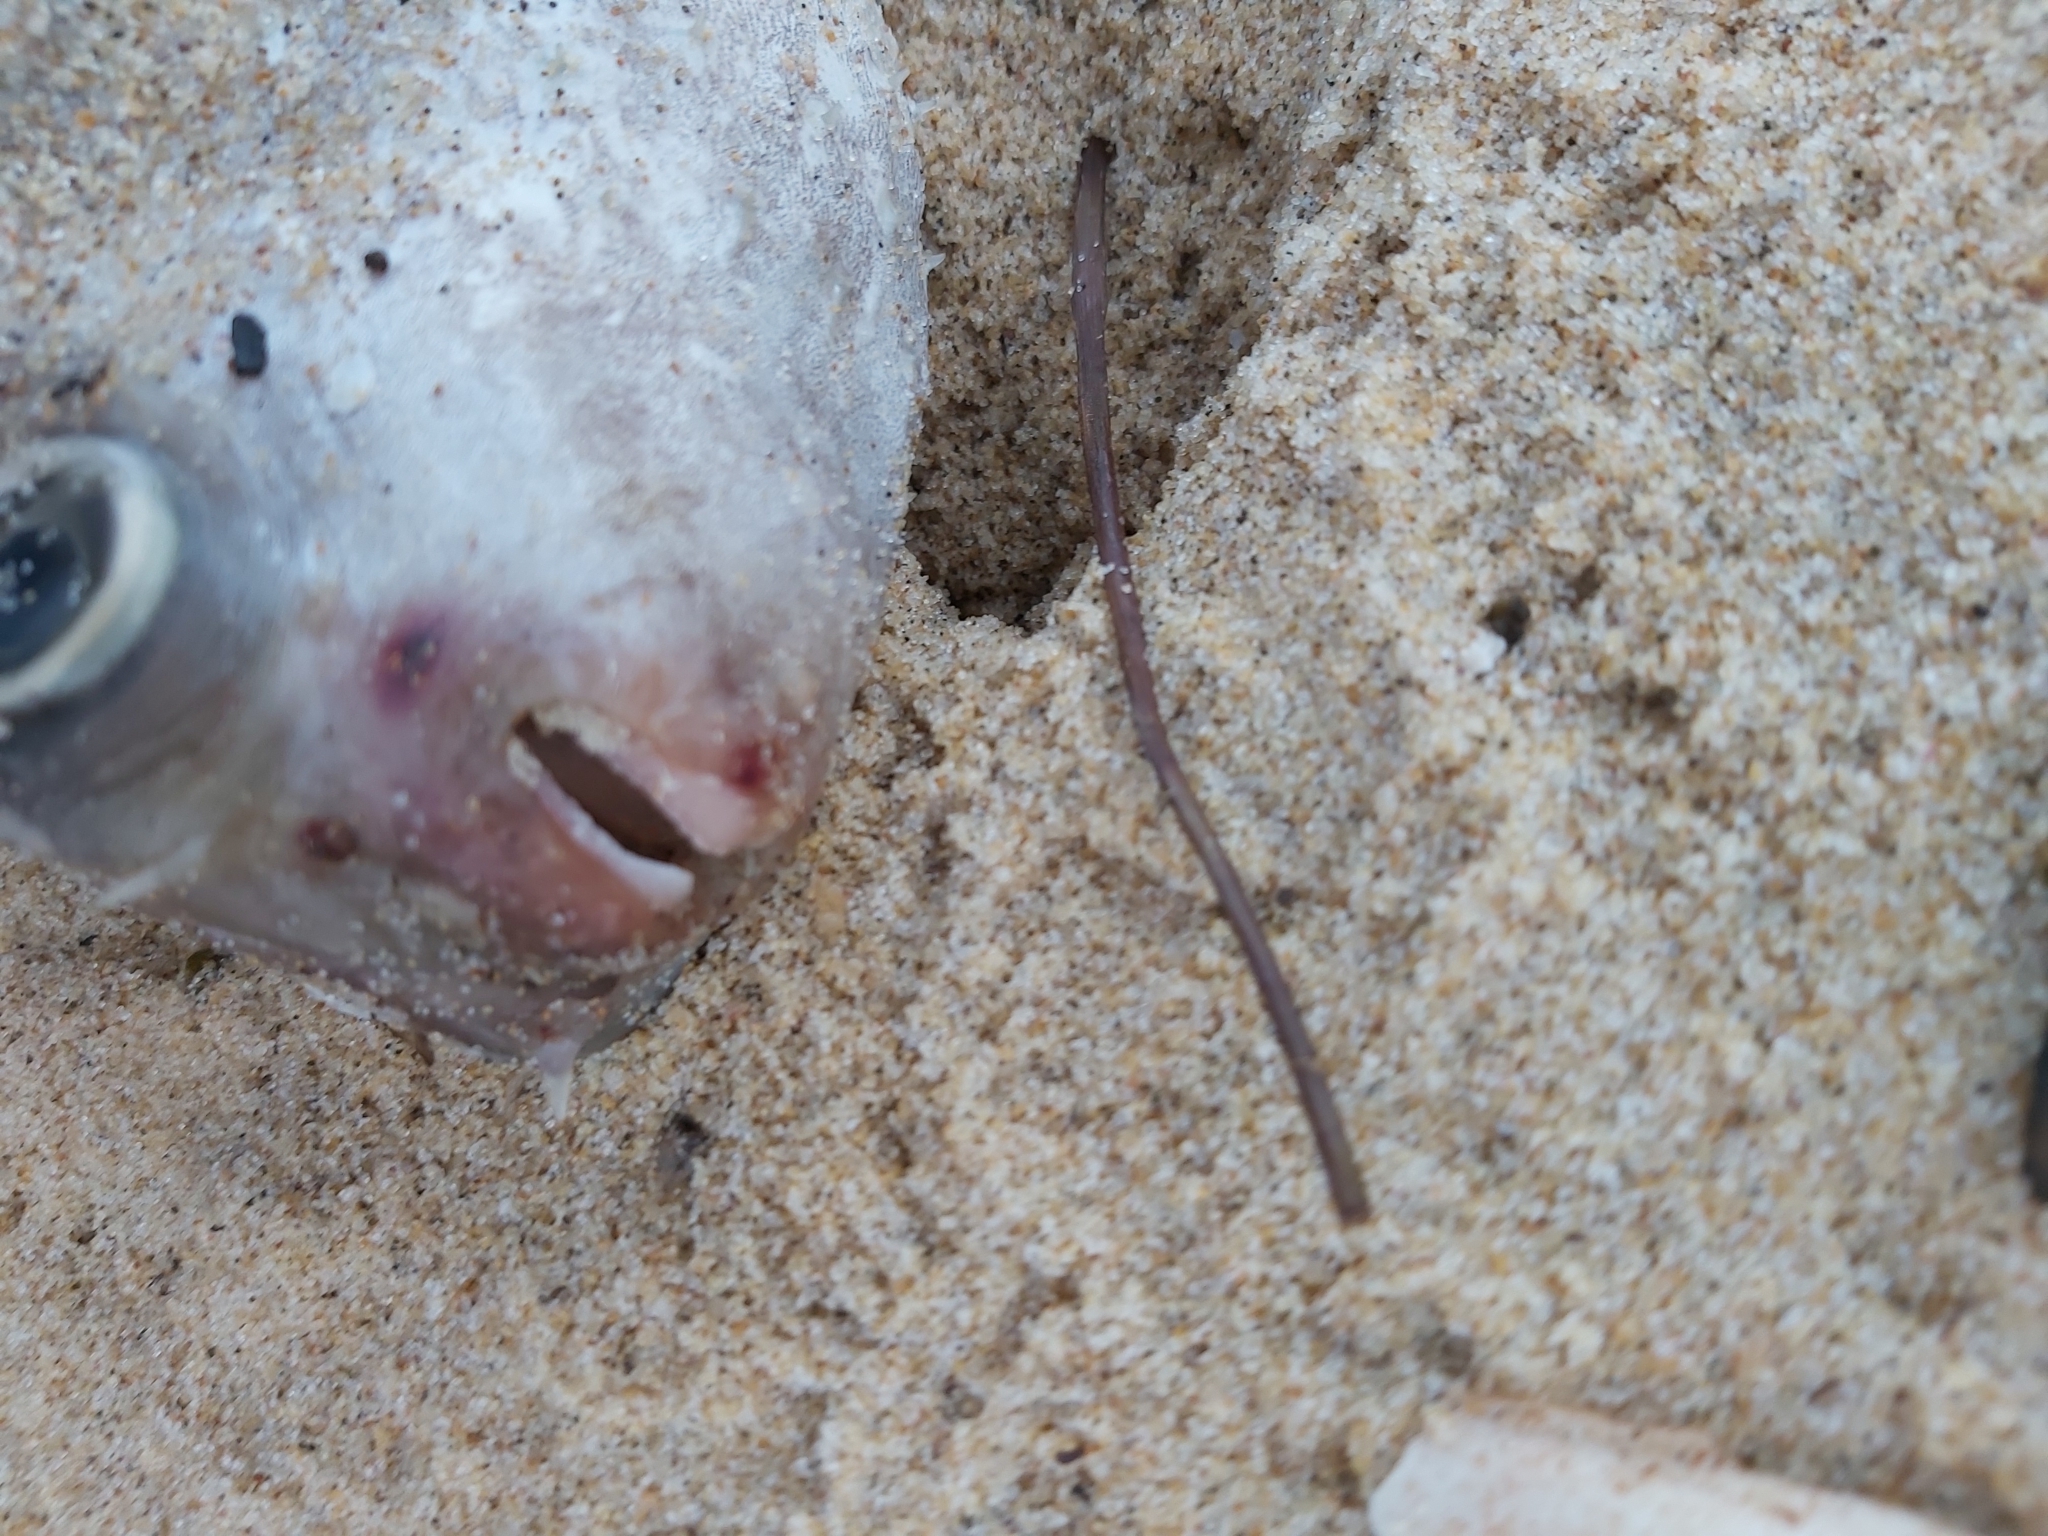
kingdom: Animalia
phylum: Chordata
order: Tetraodontiformes
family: Diodontidae
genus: Allomycterus
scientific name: Allomycterus pilatus
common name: No common name
